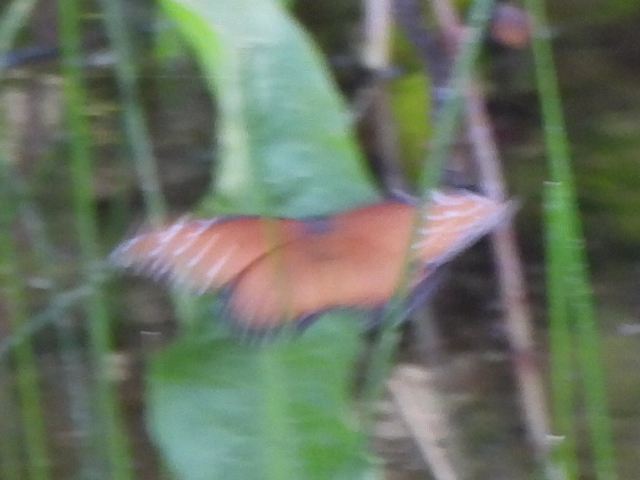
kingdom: Animalia
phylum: Arthropoda
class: Insecta
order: Lepidoptera
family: Nymphalidae
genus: Danaus
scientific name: Danaus gilippus
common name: Queen
